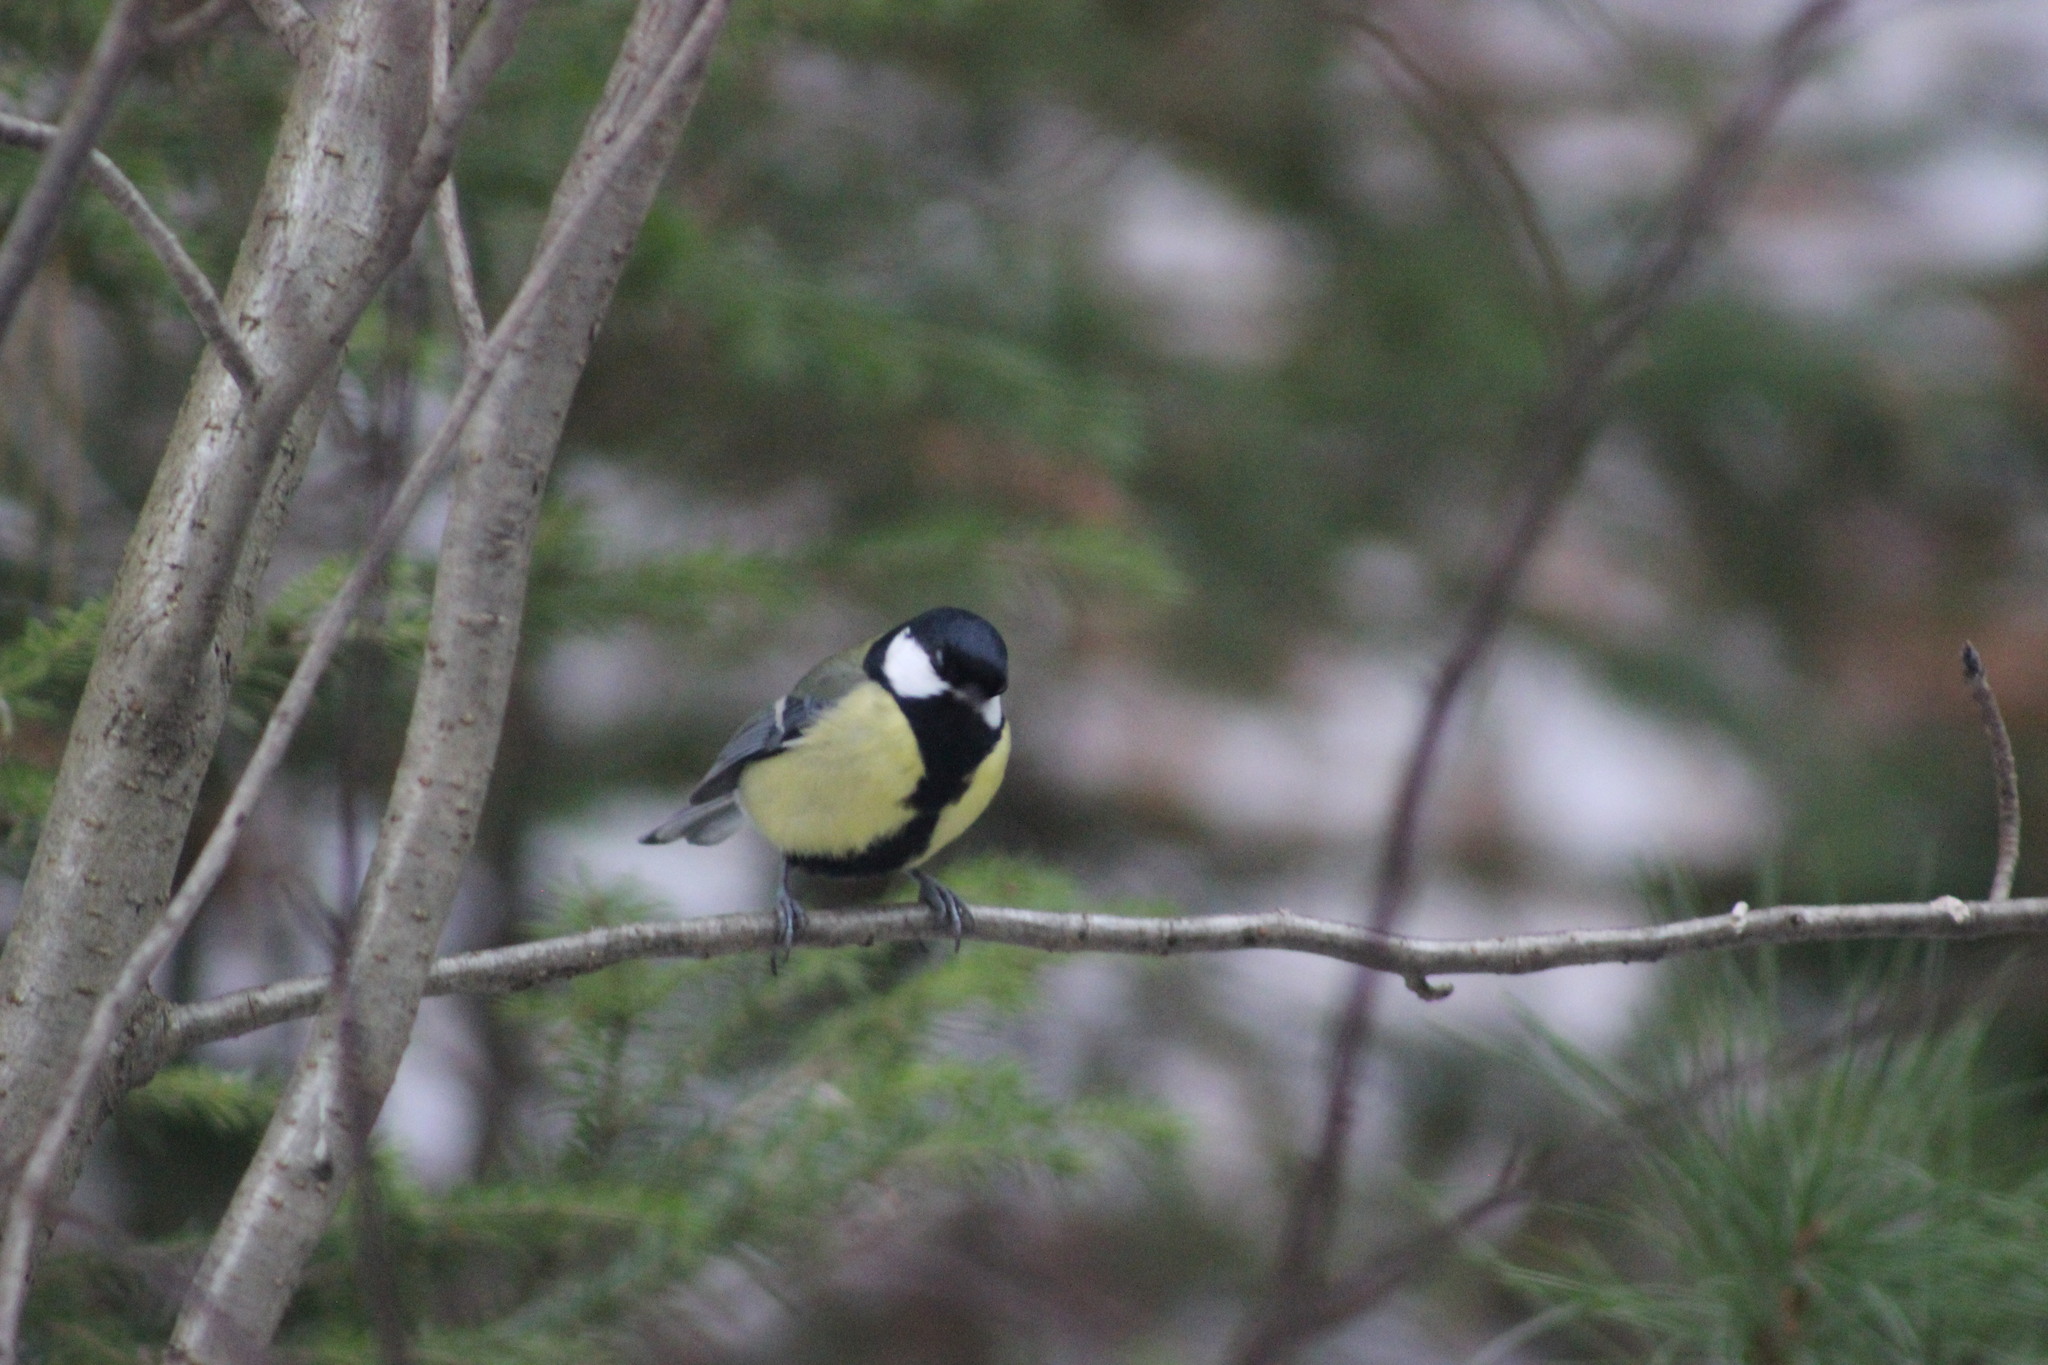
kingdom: Animalia
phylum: Chordata
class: Aves
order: Passeriformes
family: Paridae
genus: Parus
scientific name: Parus major
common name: Great tit
